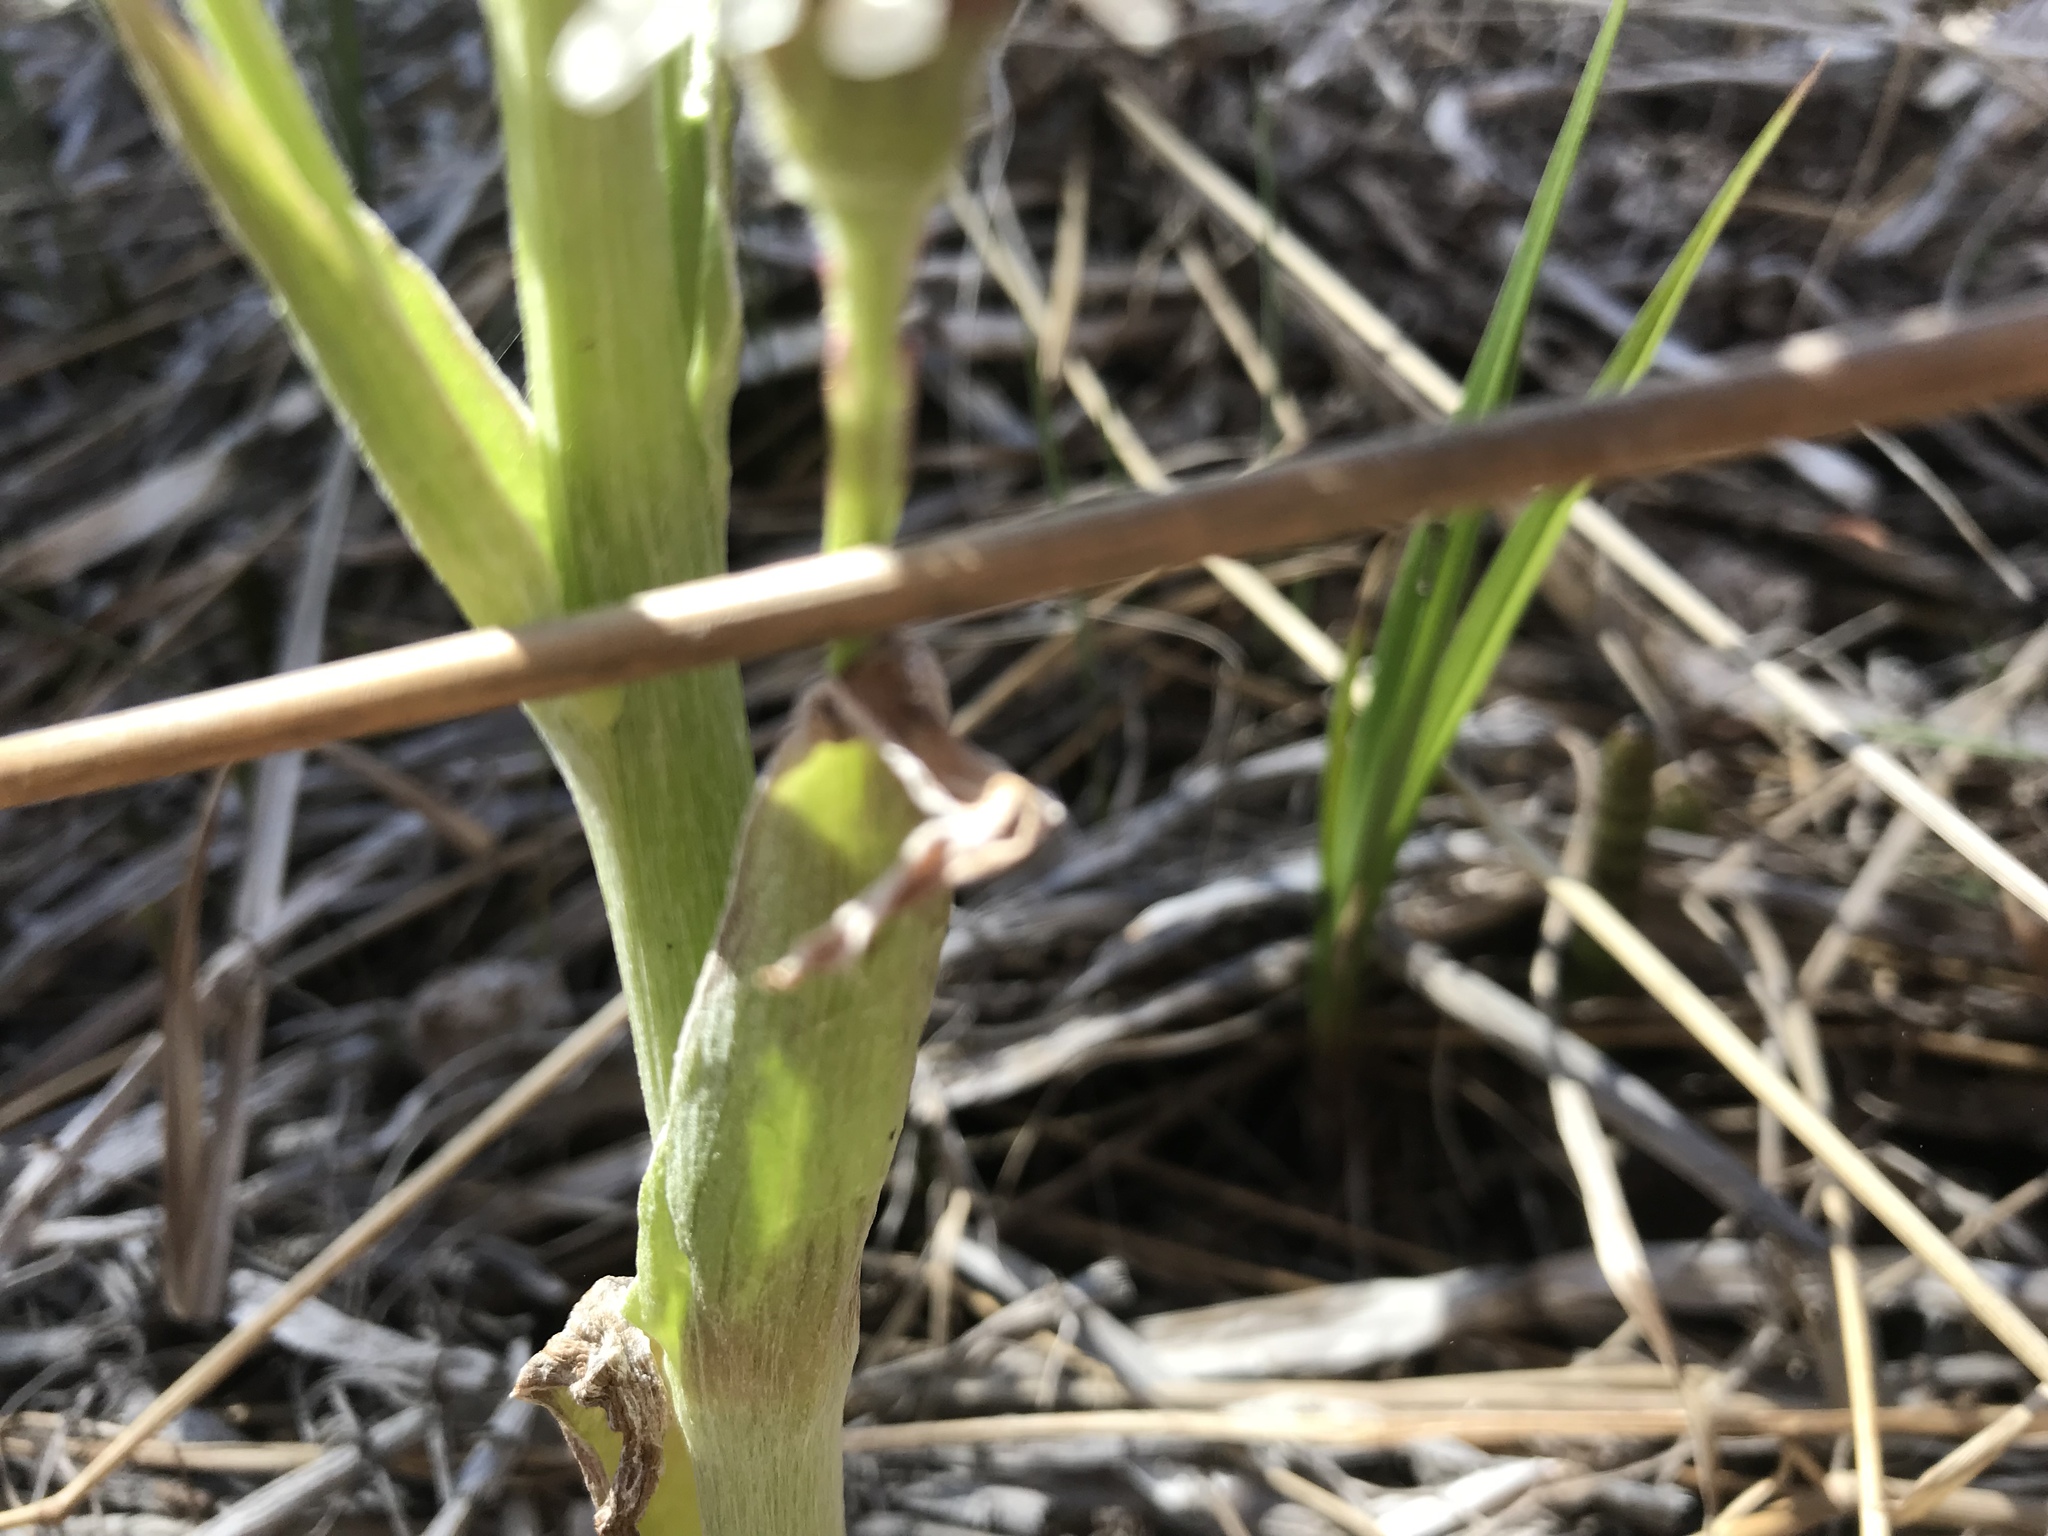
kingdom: Plantae
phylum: Tracheophyta
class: Magnoliopsida
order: Asterales
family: Asteraceae
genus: Petasites
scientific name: Petasites frigidus
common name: Arctic butterbur
